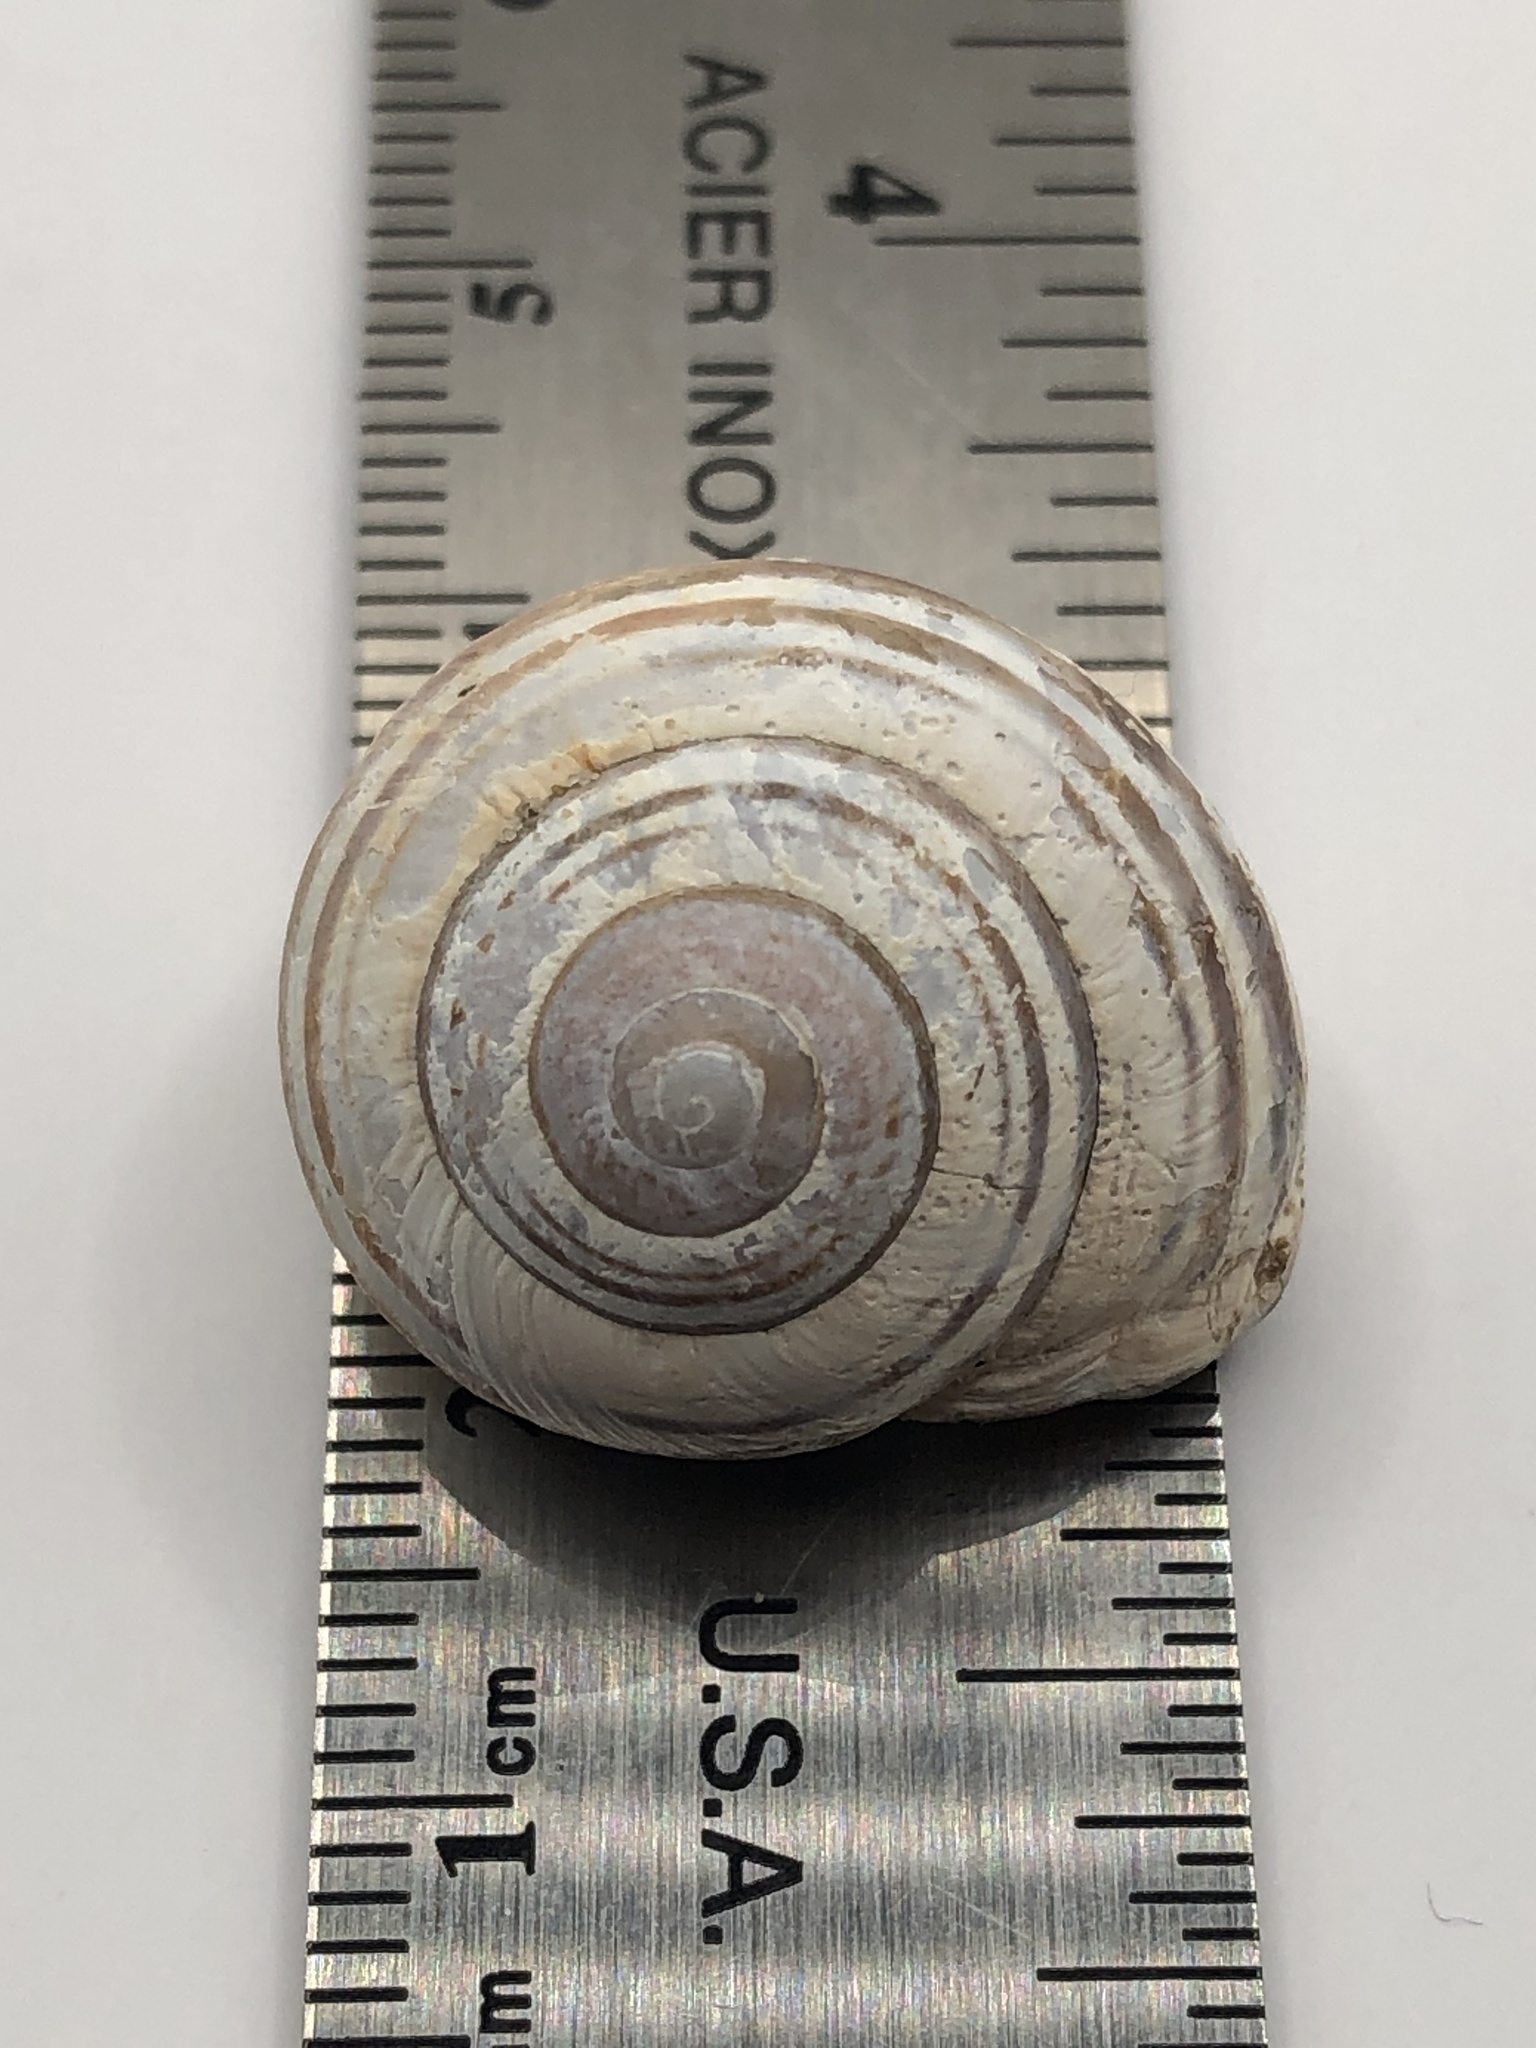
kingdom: Animalia
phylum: Mollusca
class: Gastropoda
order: Stylommatophora
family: Helicidae
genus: Cepaea
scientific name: Cepaea nemoralis
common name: Grovesnail
